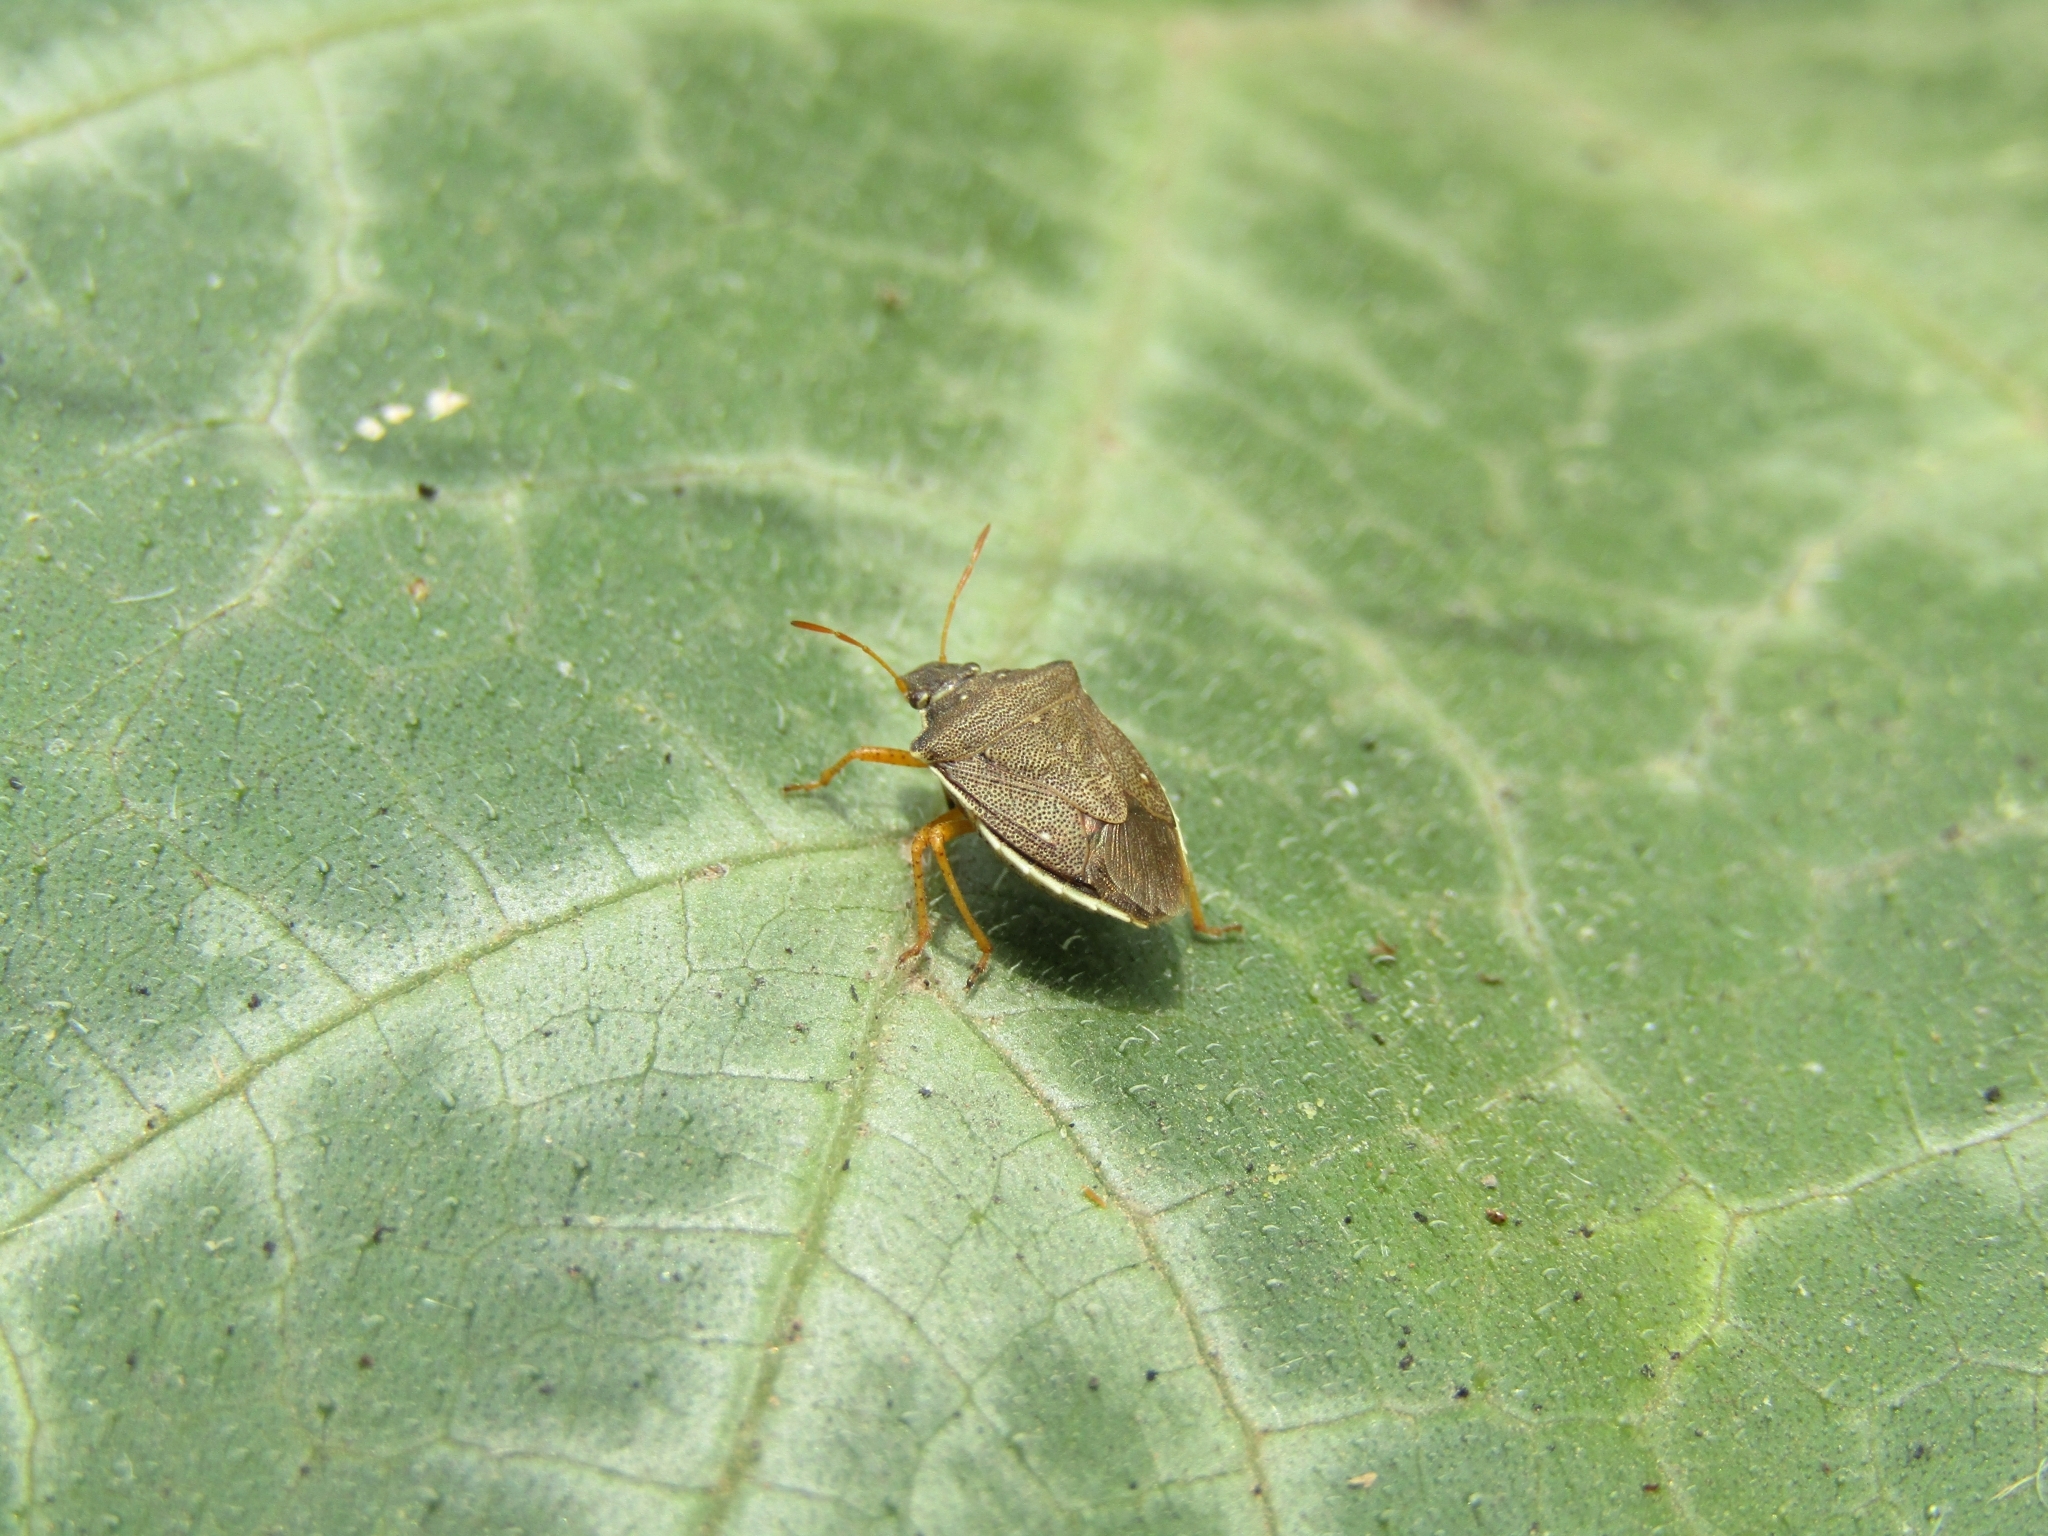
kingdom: Animalia
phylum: Arthropoda
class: Insecta
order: Hemiptera
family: Pentatomidae
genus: Mormidea
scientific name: Mormidea
